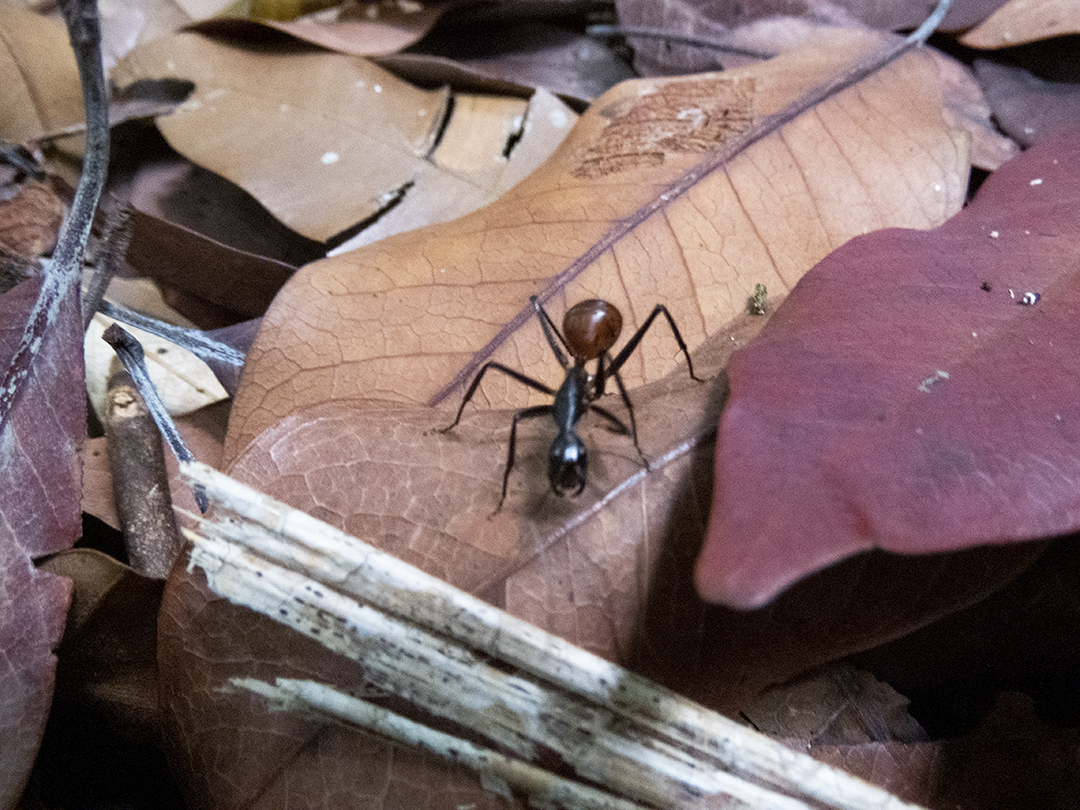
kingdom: Animalia
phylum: Arthropoda
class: Insecta
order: Hymenoptera
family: Formicidae
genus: Dinomyrmex
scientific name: Dinomyrmex
